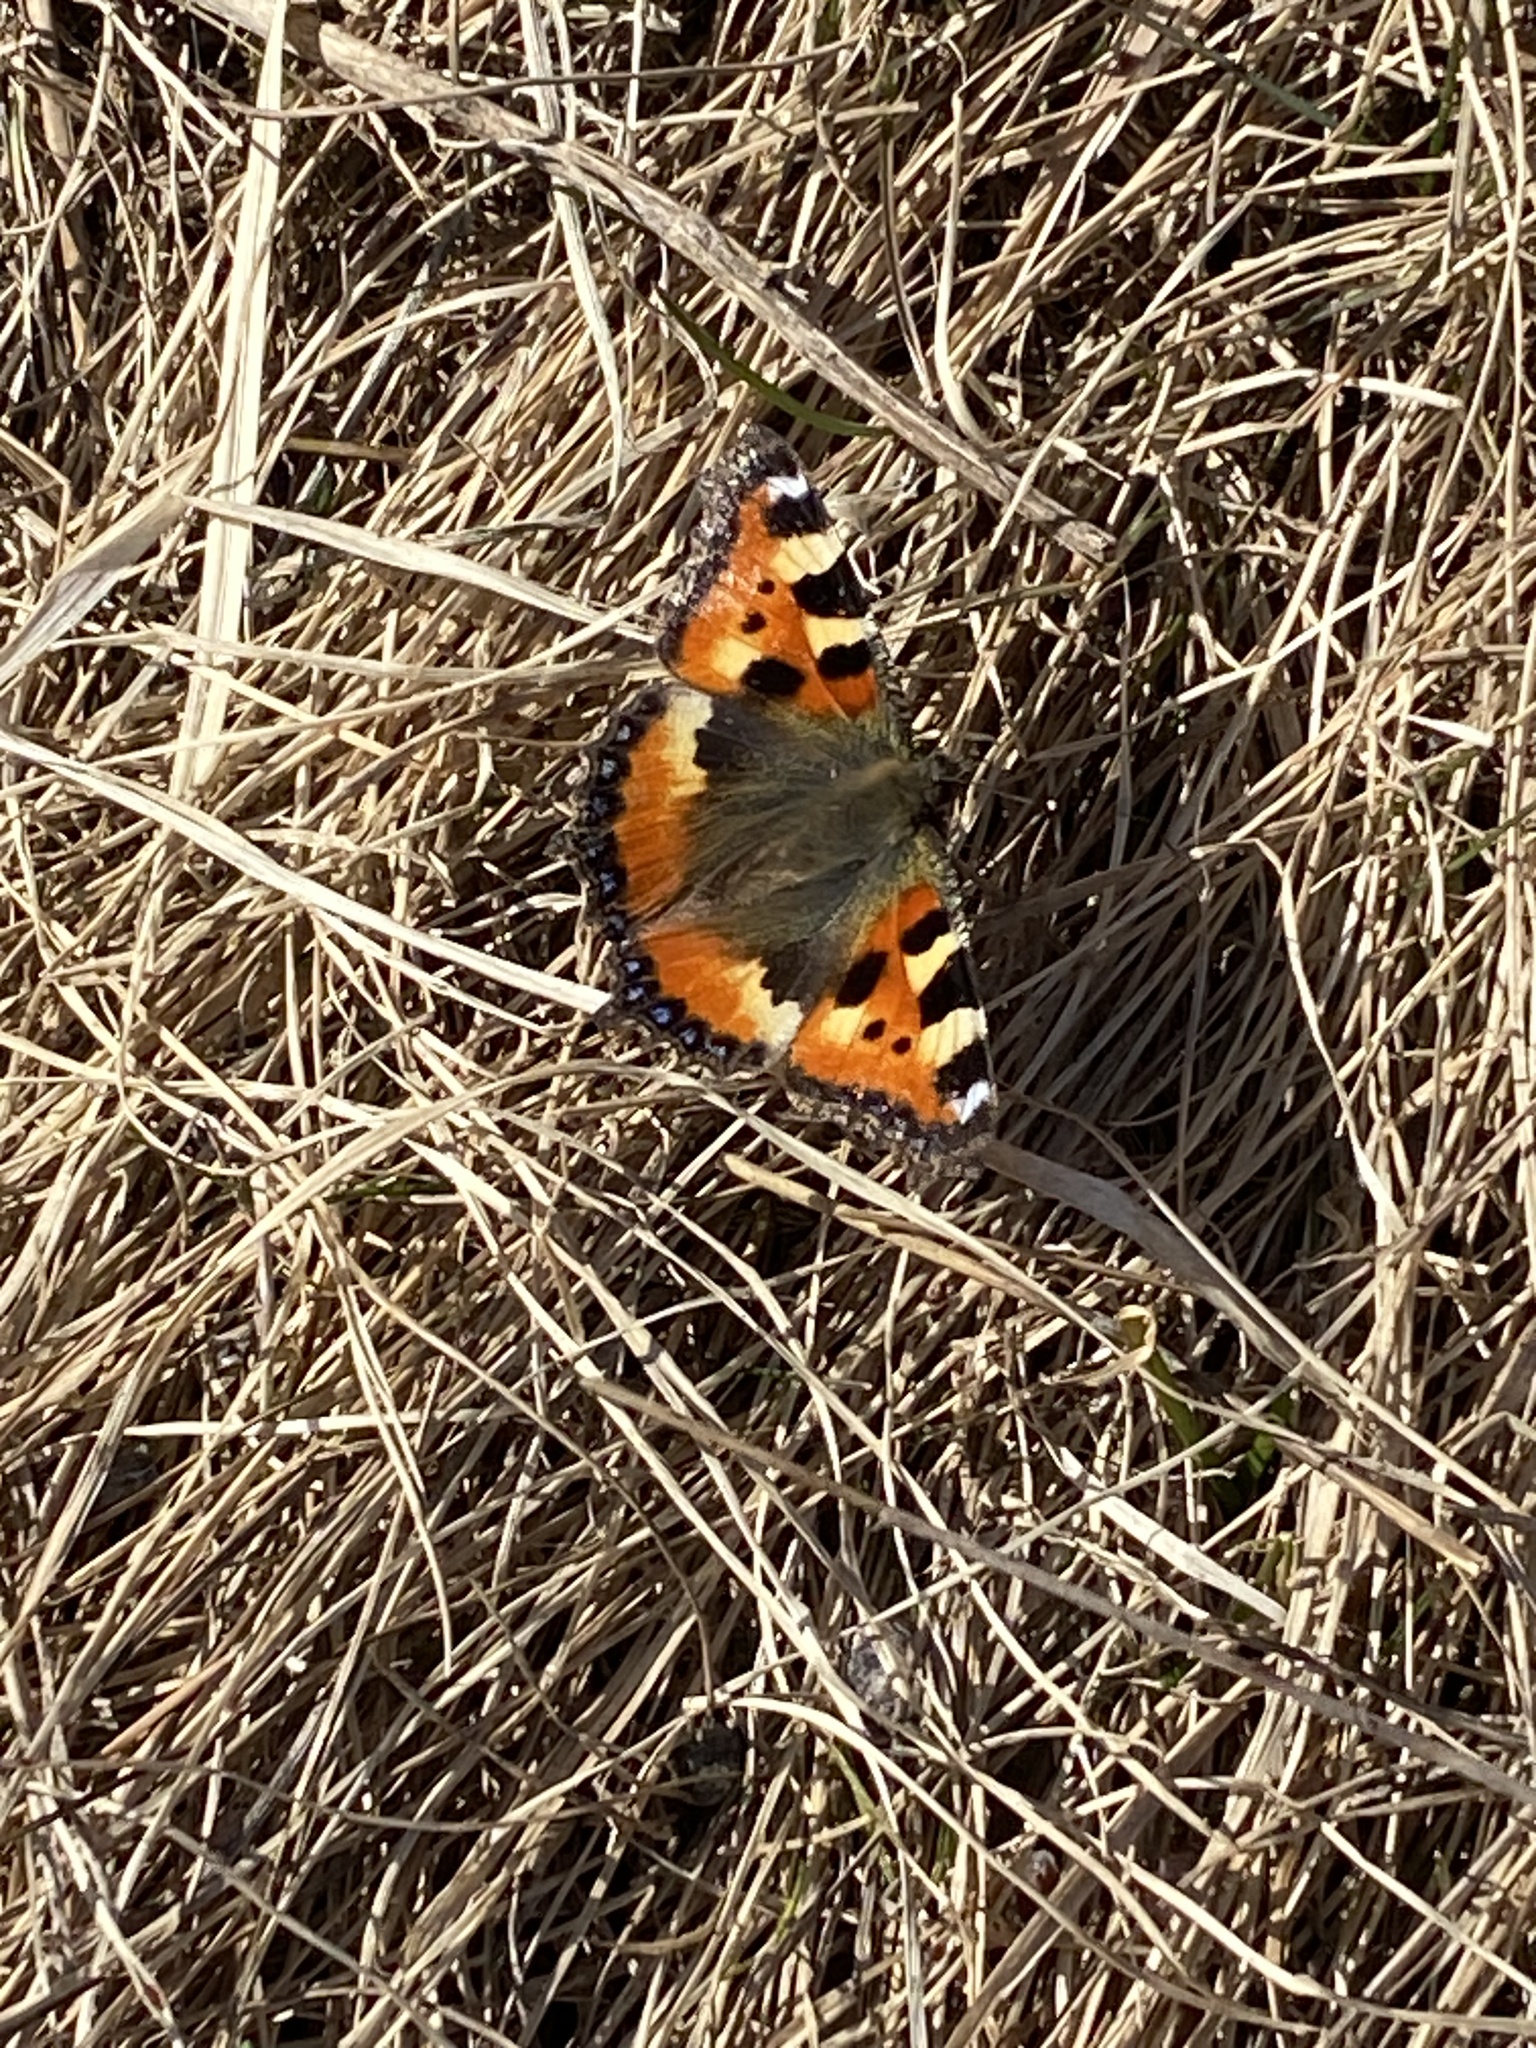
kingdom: Animalia
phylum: Arthropoda
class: Insecta
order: Lepidoptera
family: Nymphalidae
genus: Aglais
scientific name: Aglais urticae
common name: Small tortoiseshell
